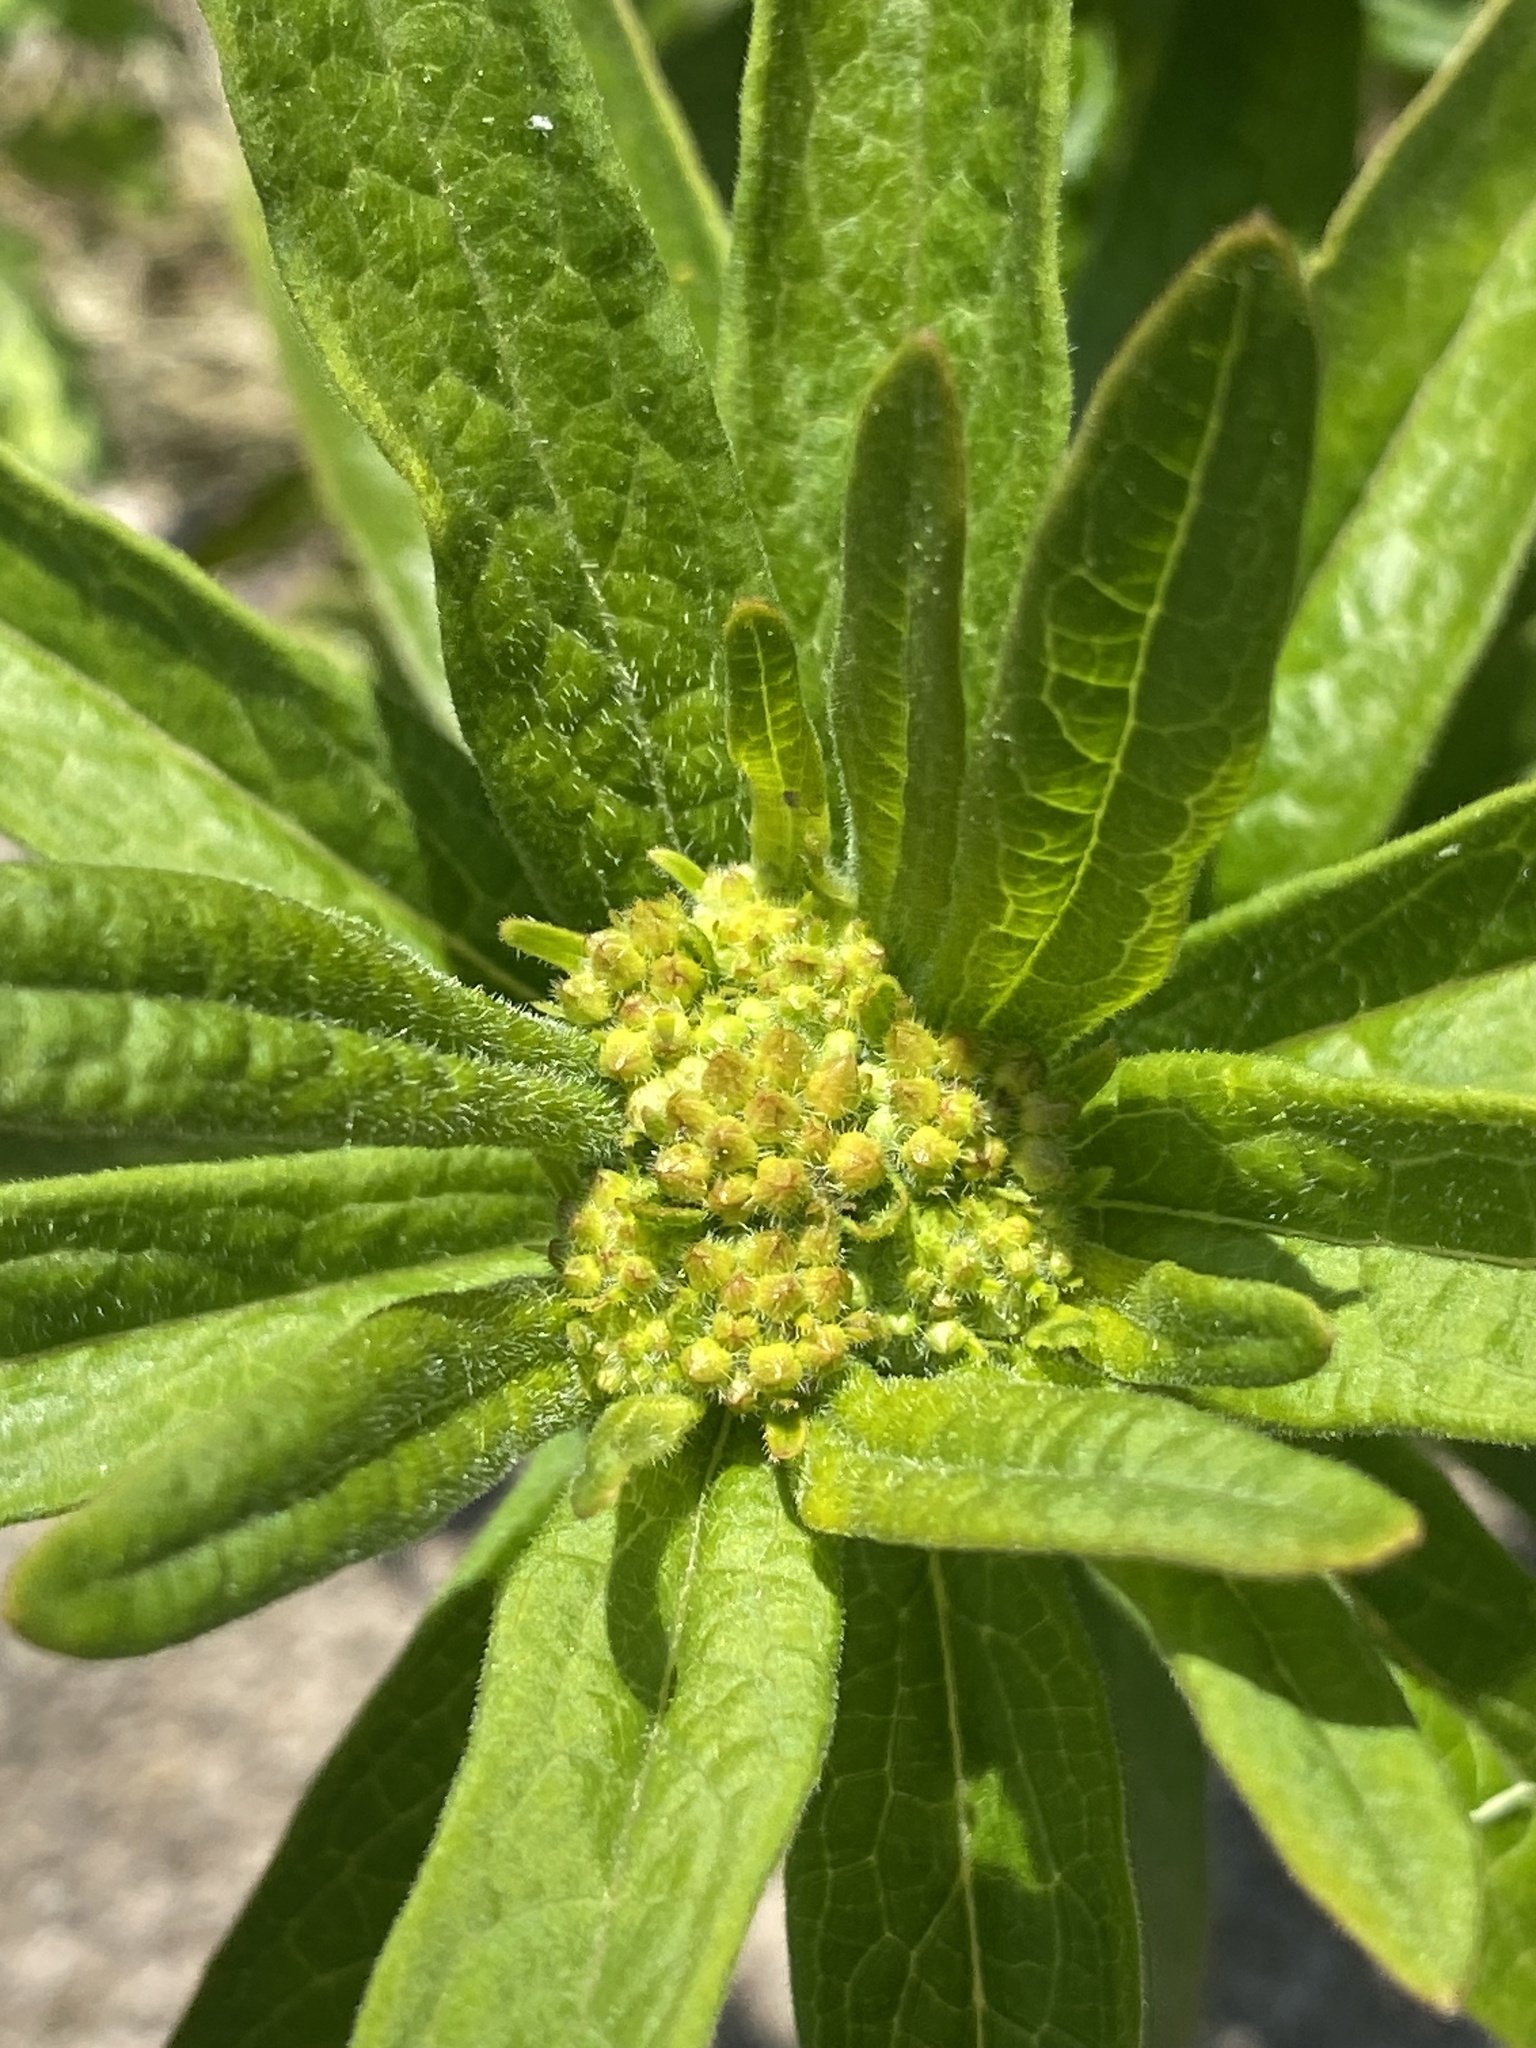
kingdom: Plantae
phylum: Tracheophyta
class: Magnoliopsida
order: Gentianales
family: Apocynaceae
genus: Asclepias
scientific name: Asclepias tuberosa
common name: Butterfly milkweed
